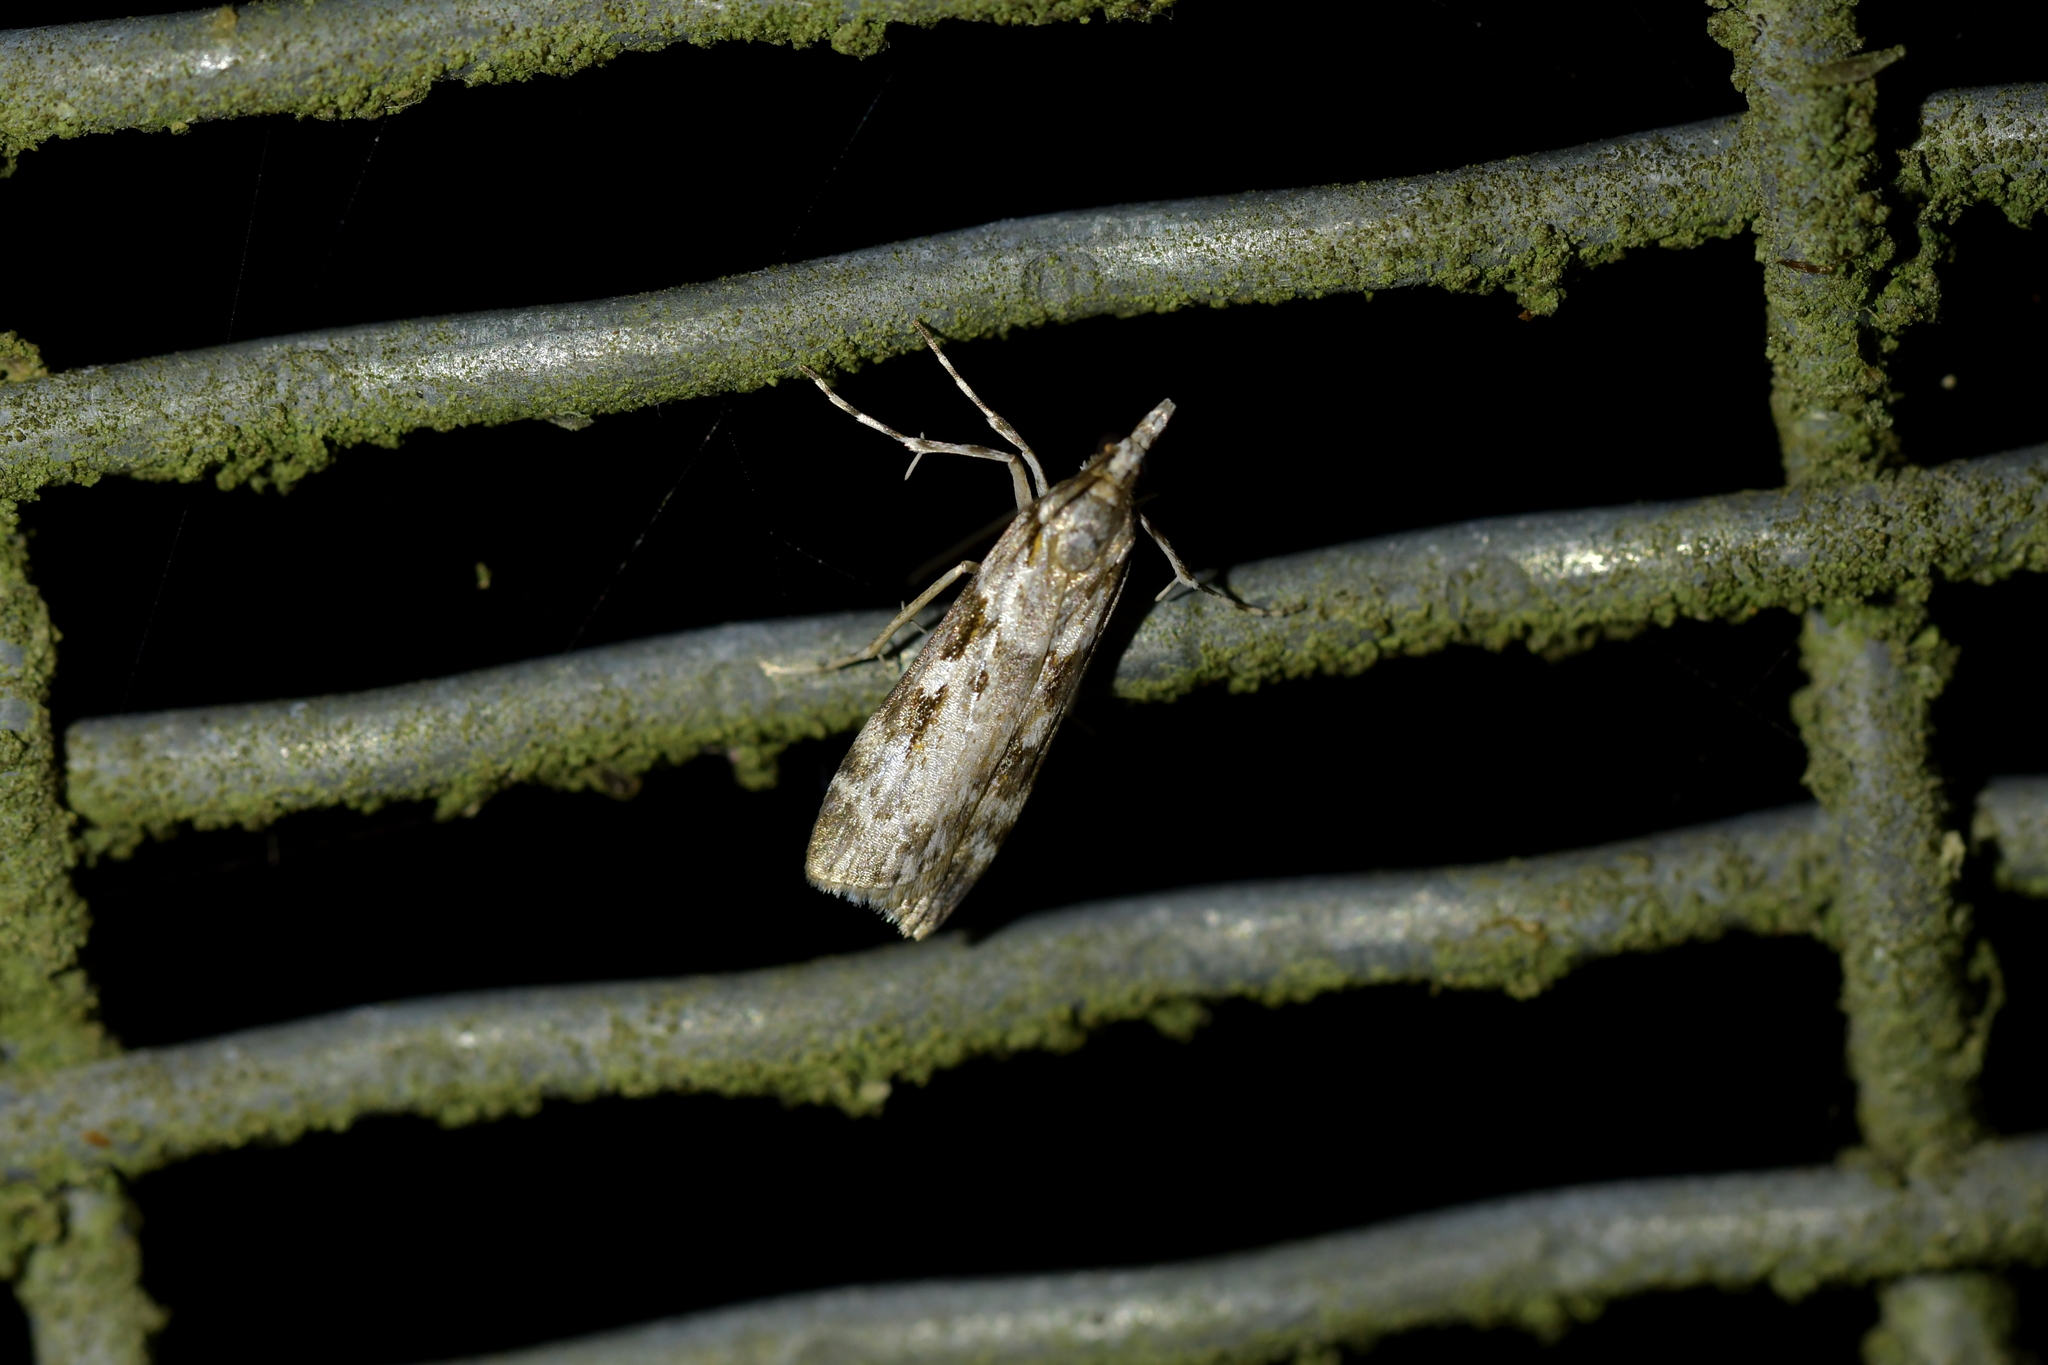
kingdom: Animalia
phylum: Arthropoda
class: Insecta
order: Lepidoptera
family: Crambidae
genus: Scoparia
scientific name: Scoparia halopis
